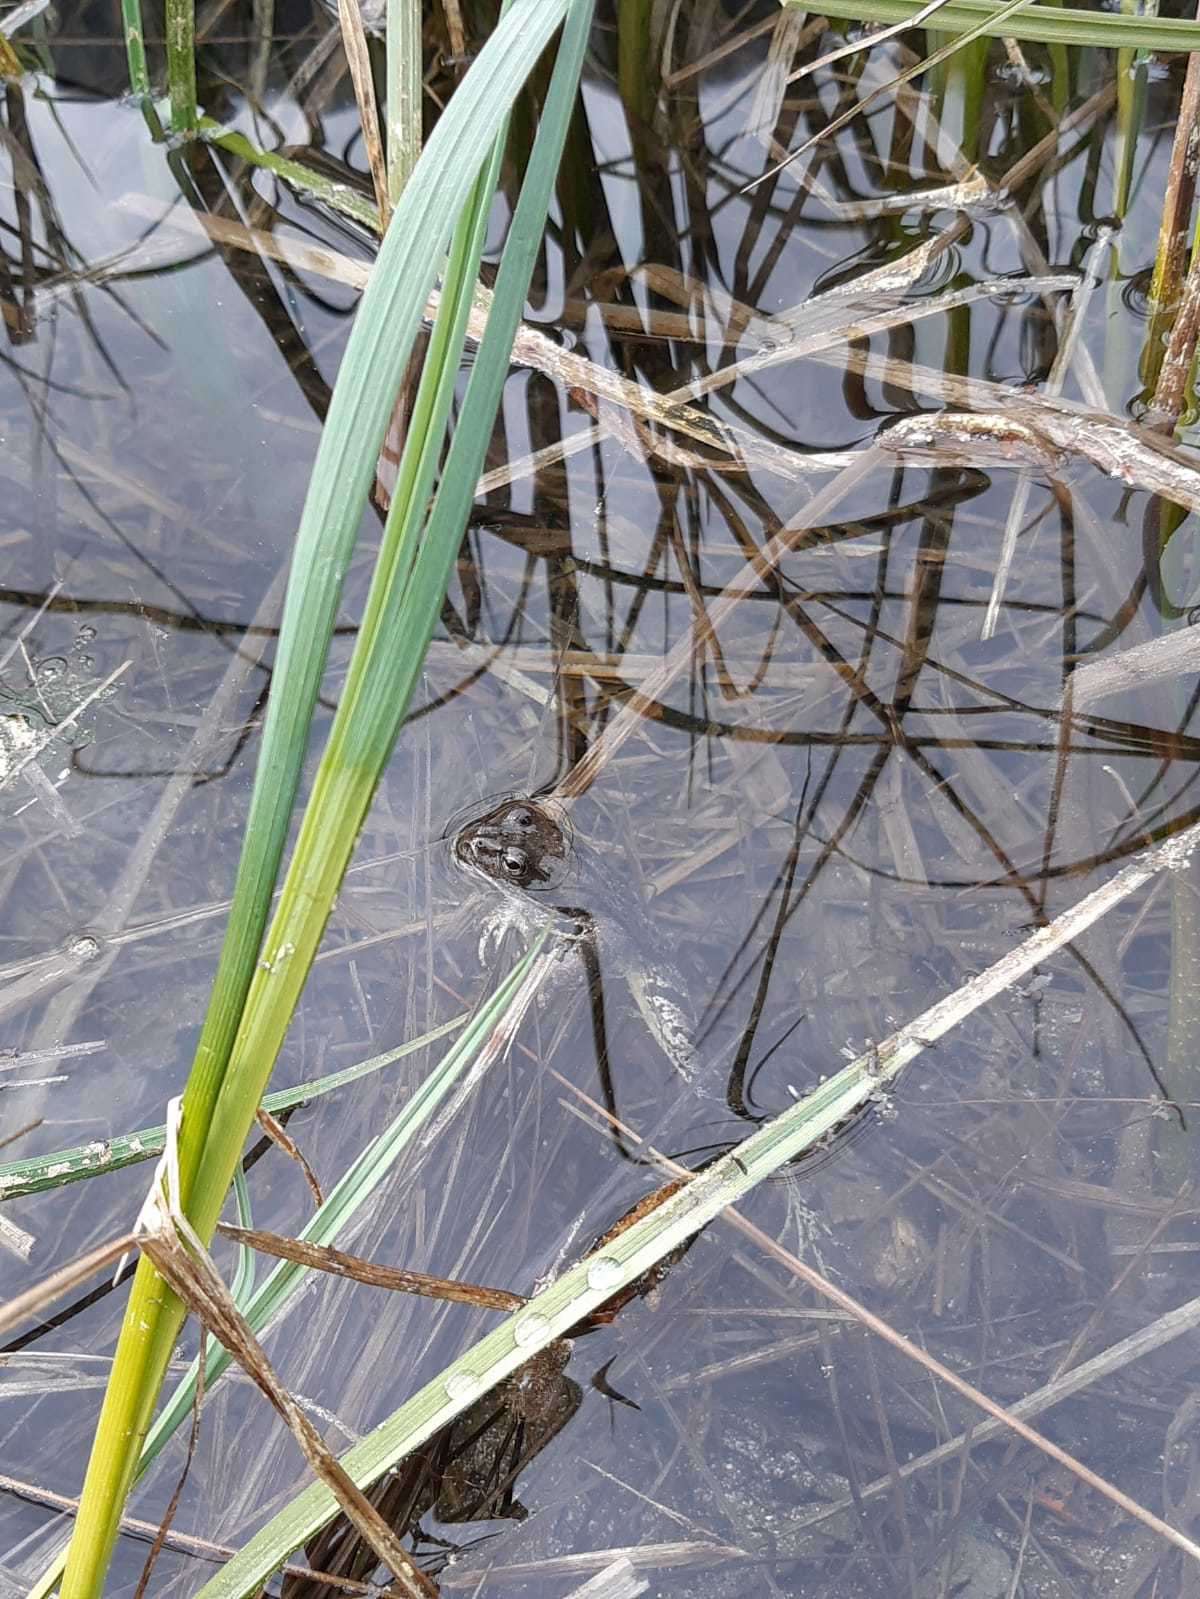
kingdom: Animalia
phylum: Chordata
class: Amphibia
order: Anura
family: Ranidae
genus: Rana
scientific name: Rana temporaria
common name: Common frog
